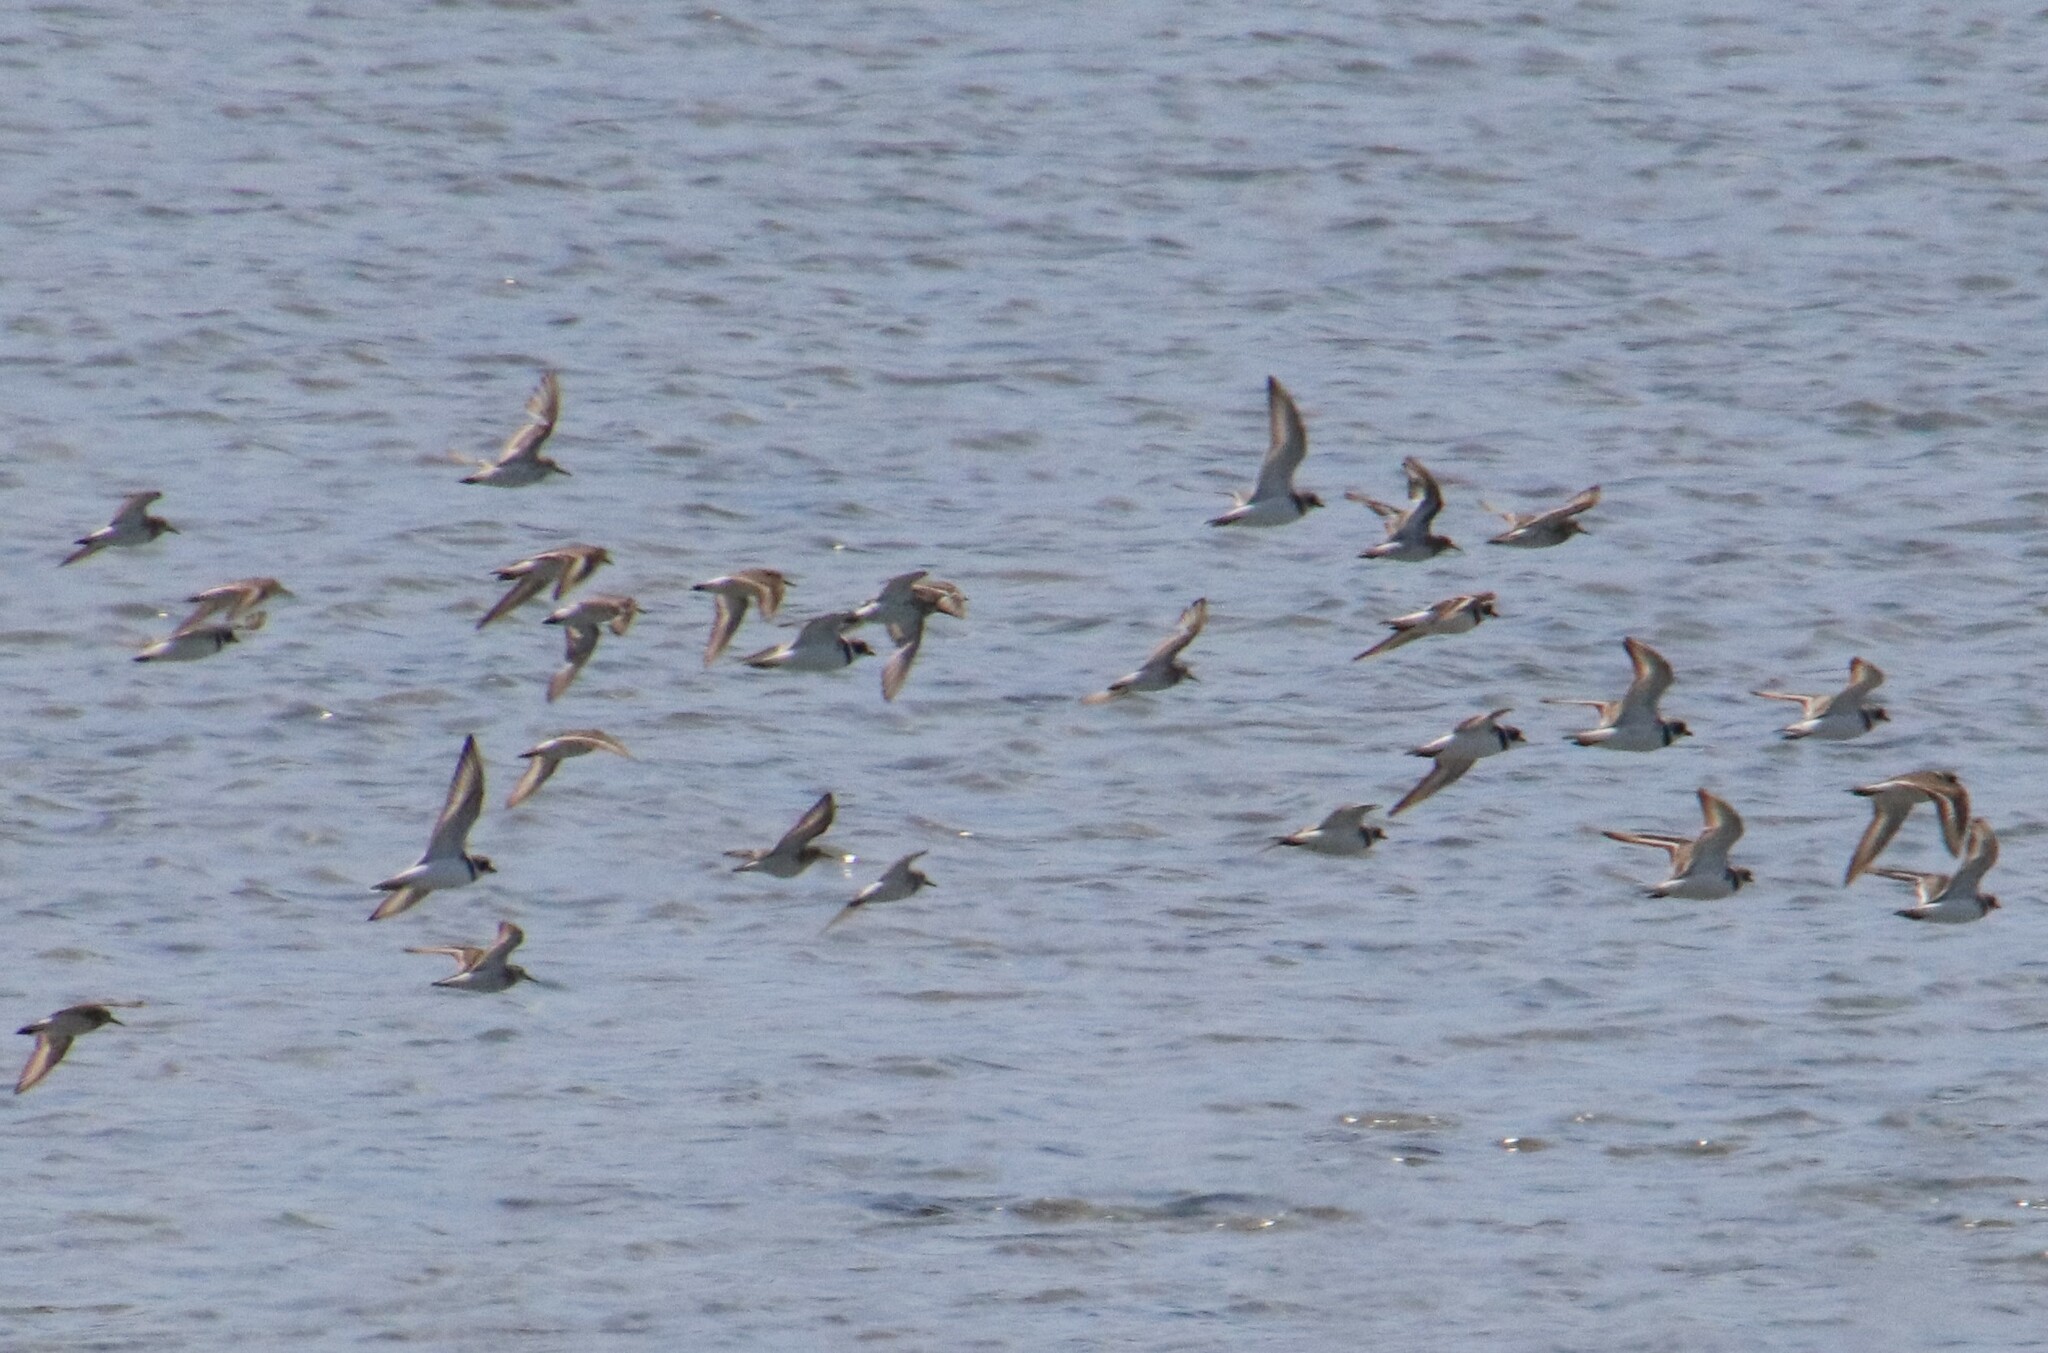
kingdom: Animalia
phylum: Chordata
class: Aves
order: Charadriiformes
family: Charadriidae
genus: Charadrius
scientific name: Charadrius semipalmatus
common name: Semipalmated plover
